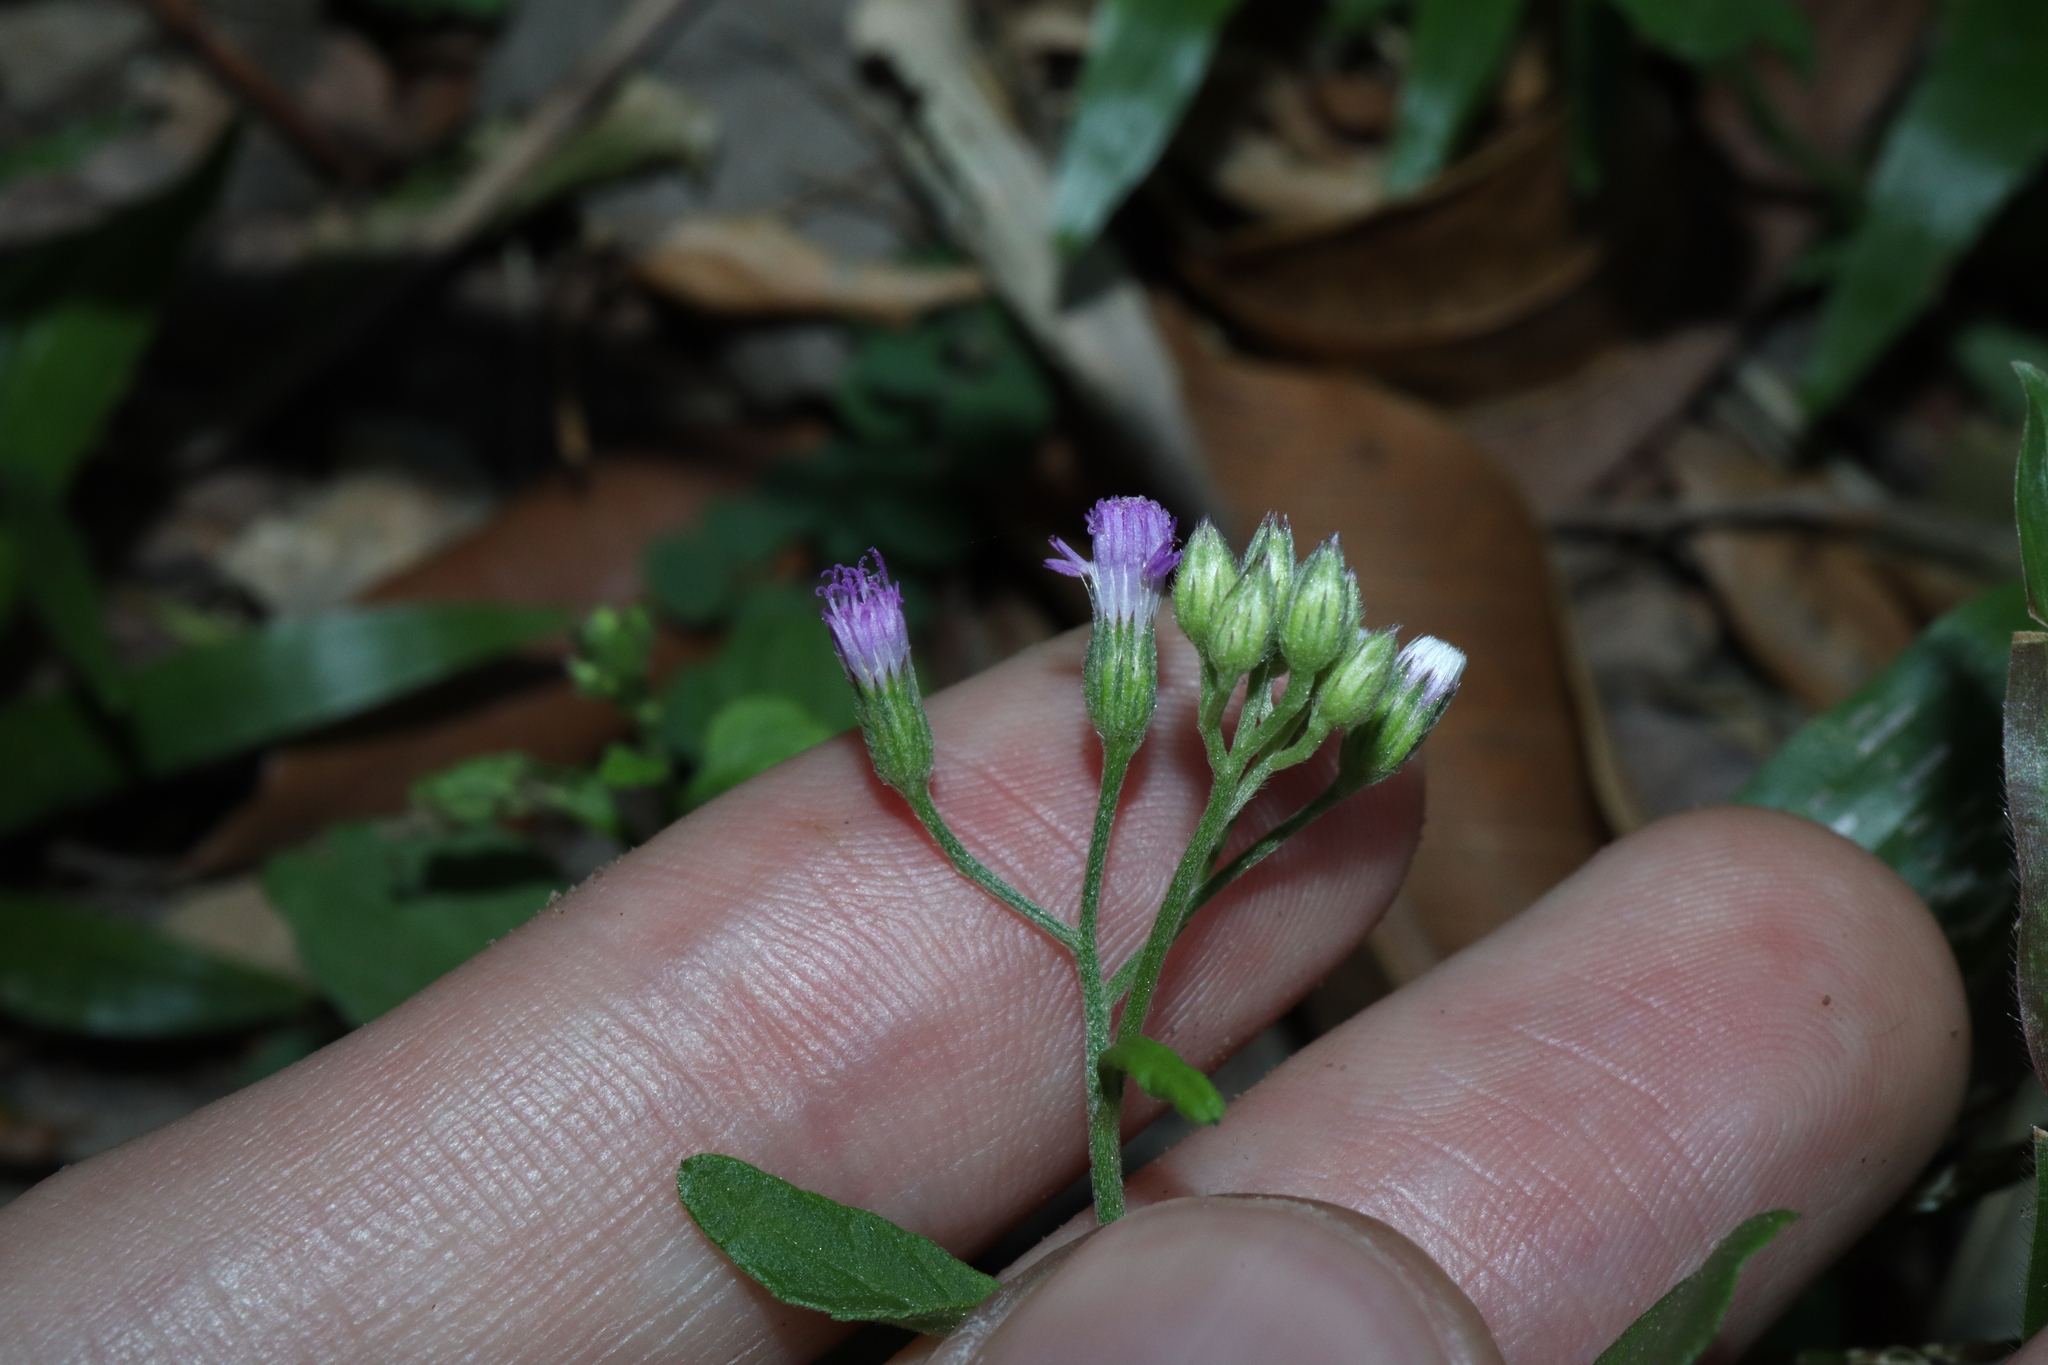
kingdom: Plantae
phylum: Tracheophyta
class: Magnoliopsida
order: Asterales
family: Asteraceae
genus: Cyanthillium
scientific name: Cyanthillium cinereum
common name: Little ironweed
